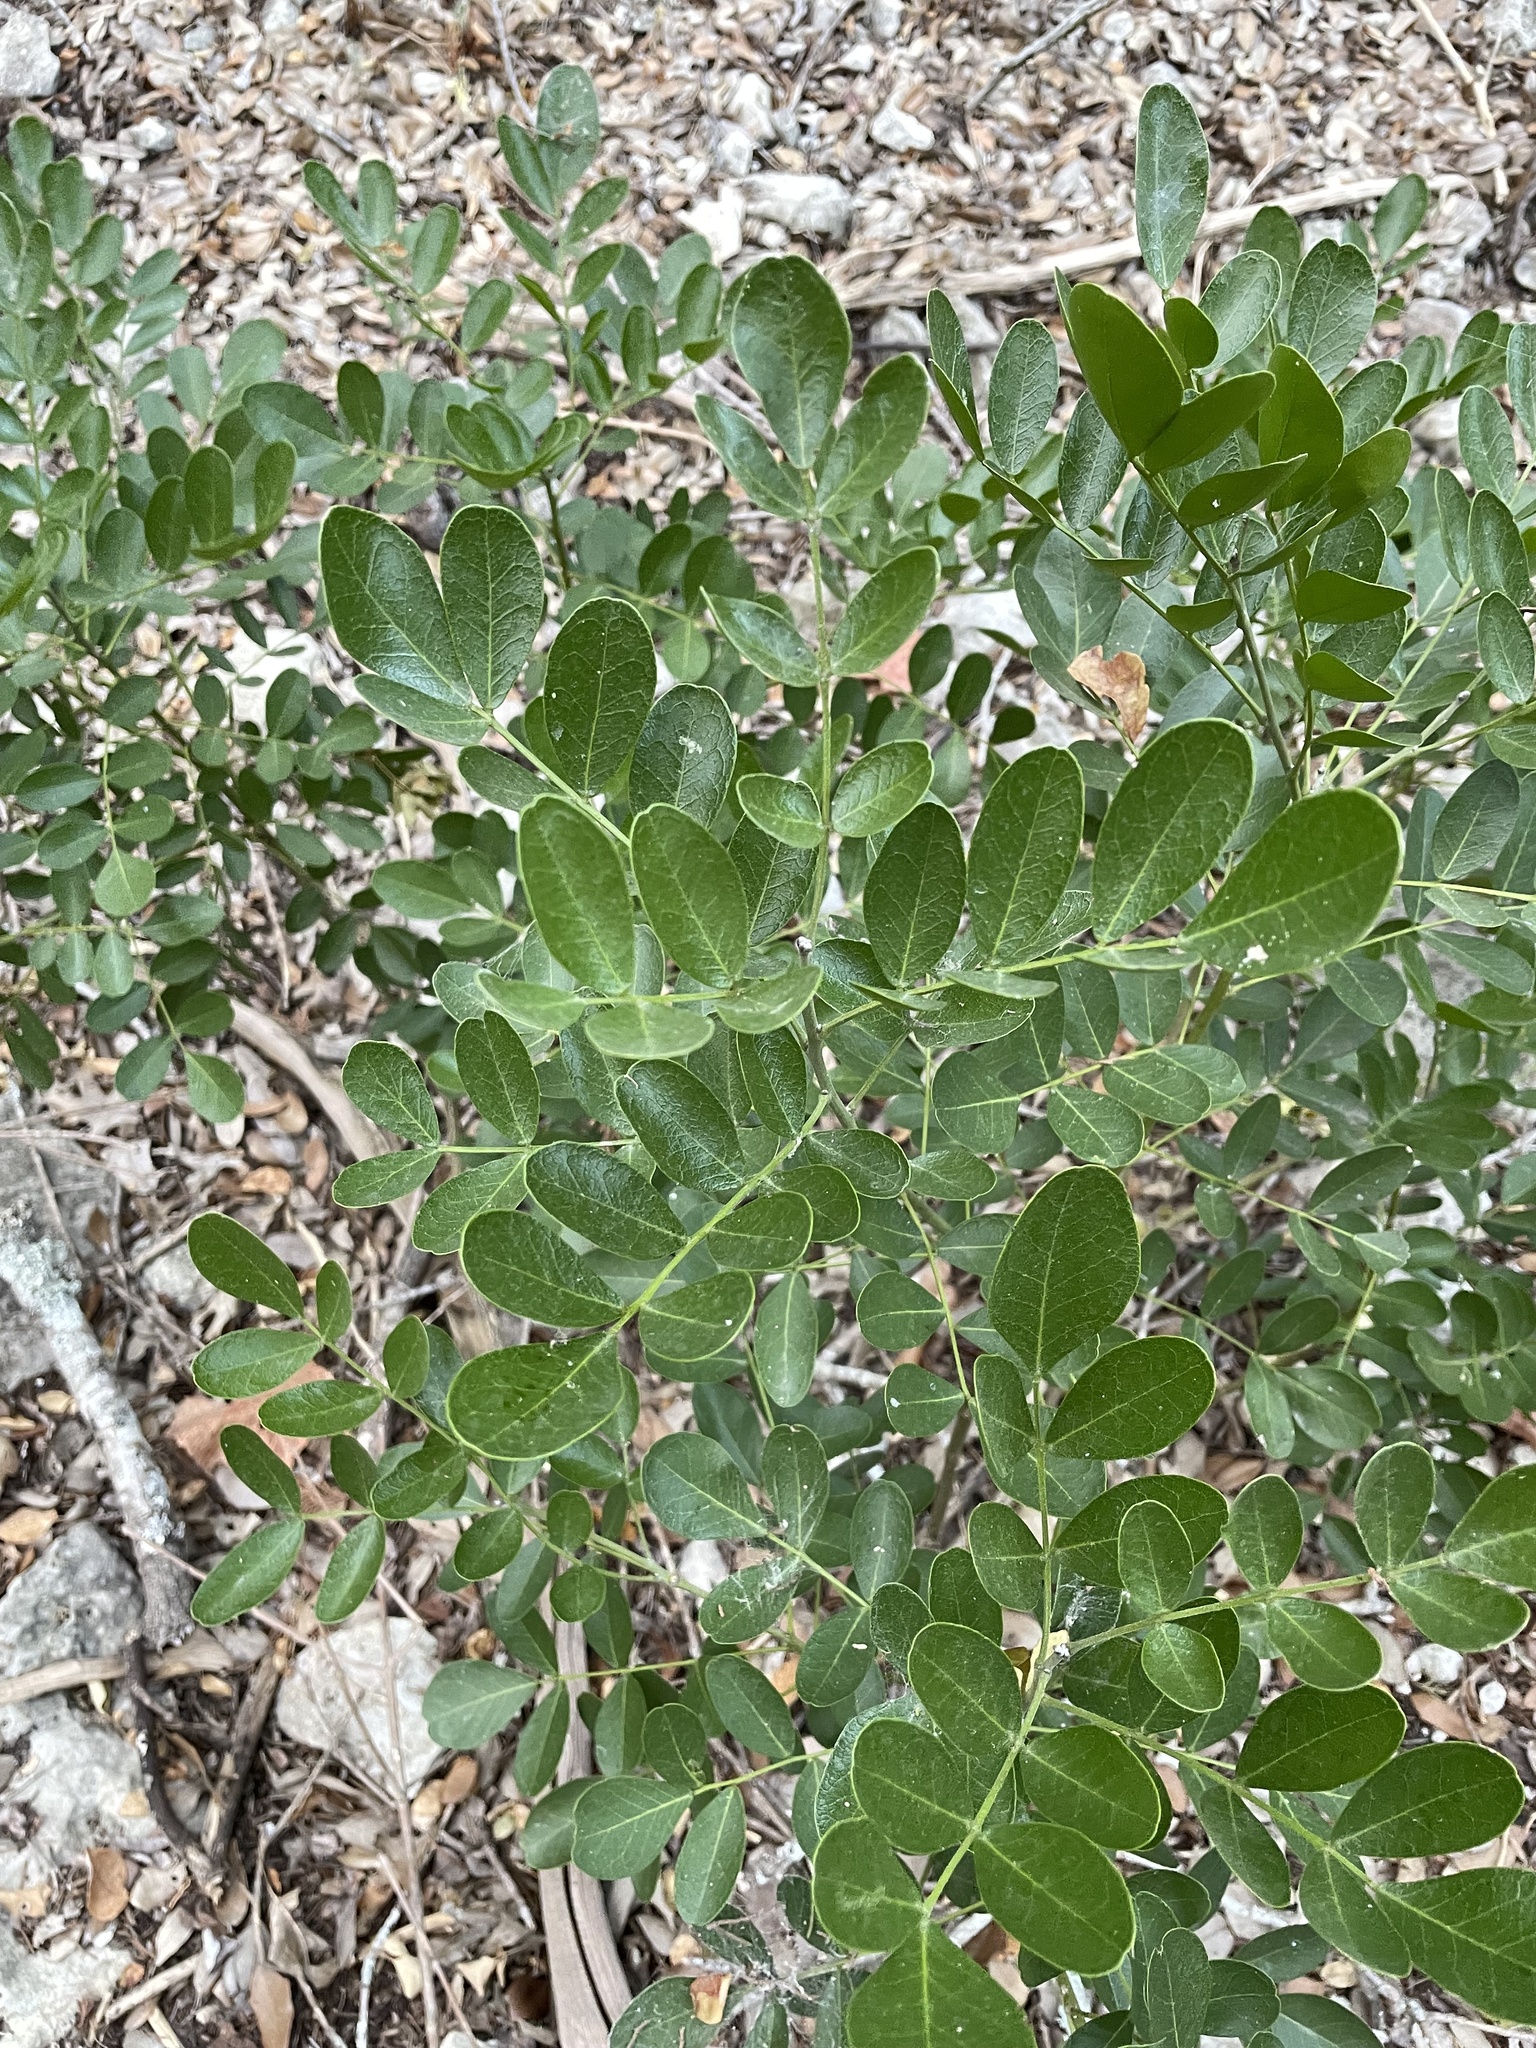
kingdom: Plantae
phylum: Tracheophyta
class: Magnoliopsida
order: Fabales
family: Fabaceae
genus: Dermatophyllum
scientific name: Dermatophyllum secundiflorum
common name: Texas-mountain-laurel
